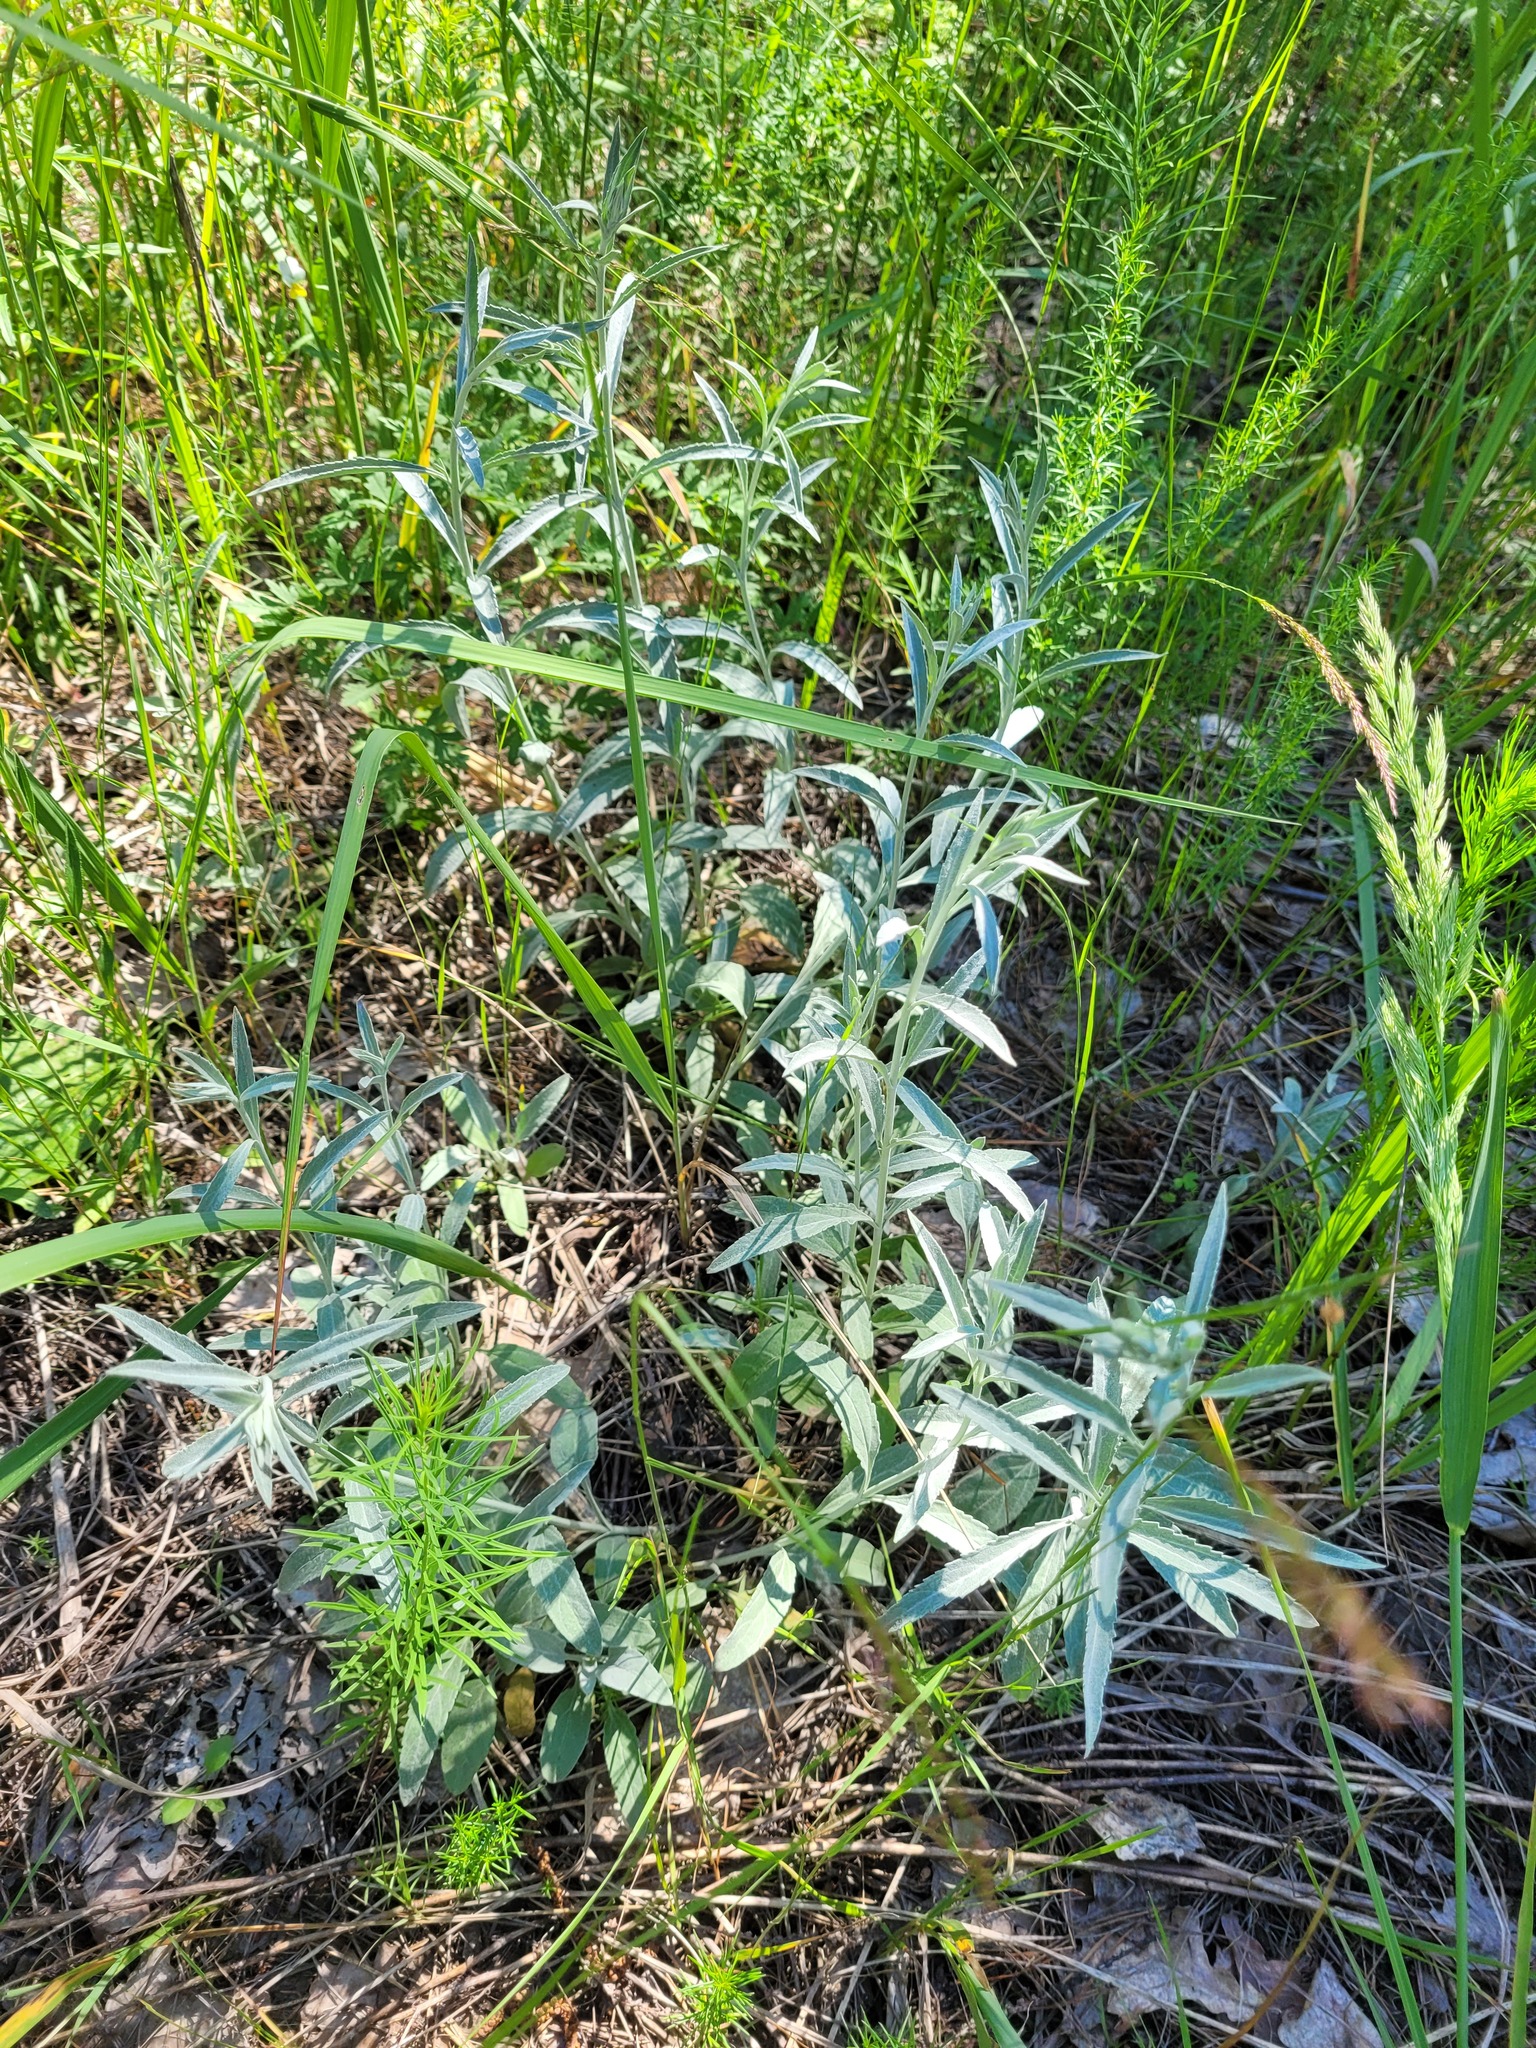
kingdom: Plantae
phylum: Tracheophyta
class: Magnoliopsida
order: Lamiales
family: Plantaginaceae
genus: Veronica
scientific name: Veronica incana
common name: Silver speedwell
